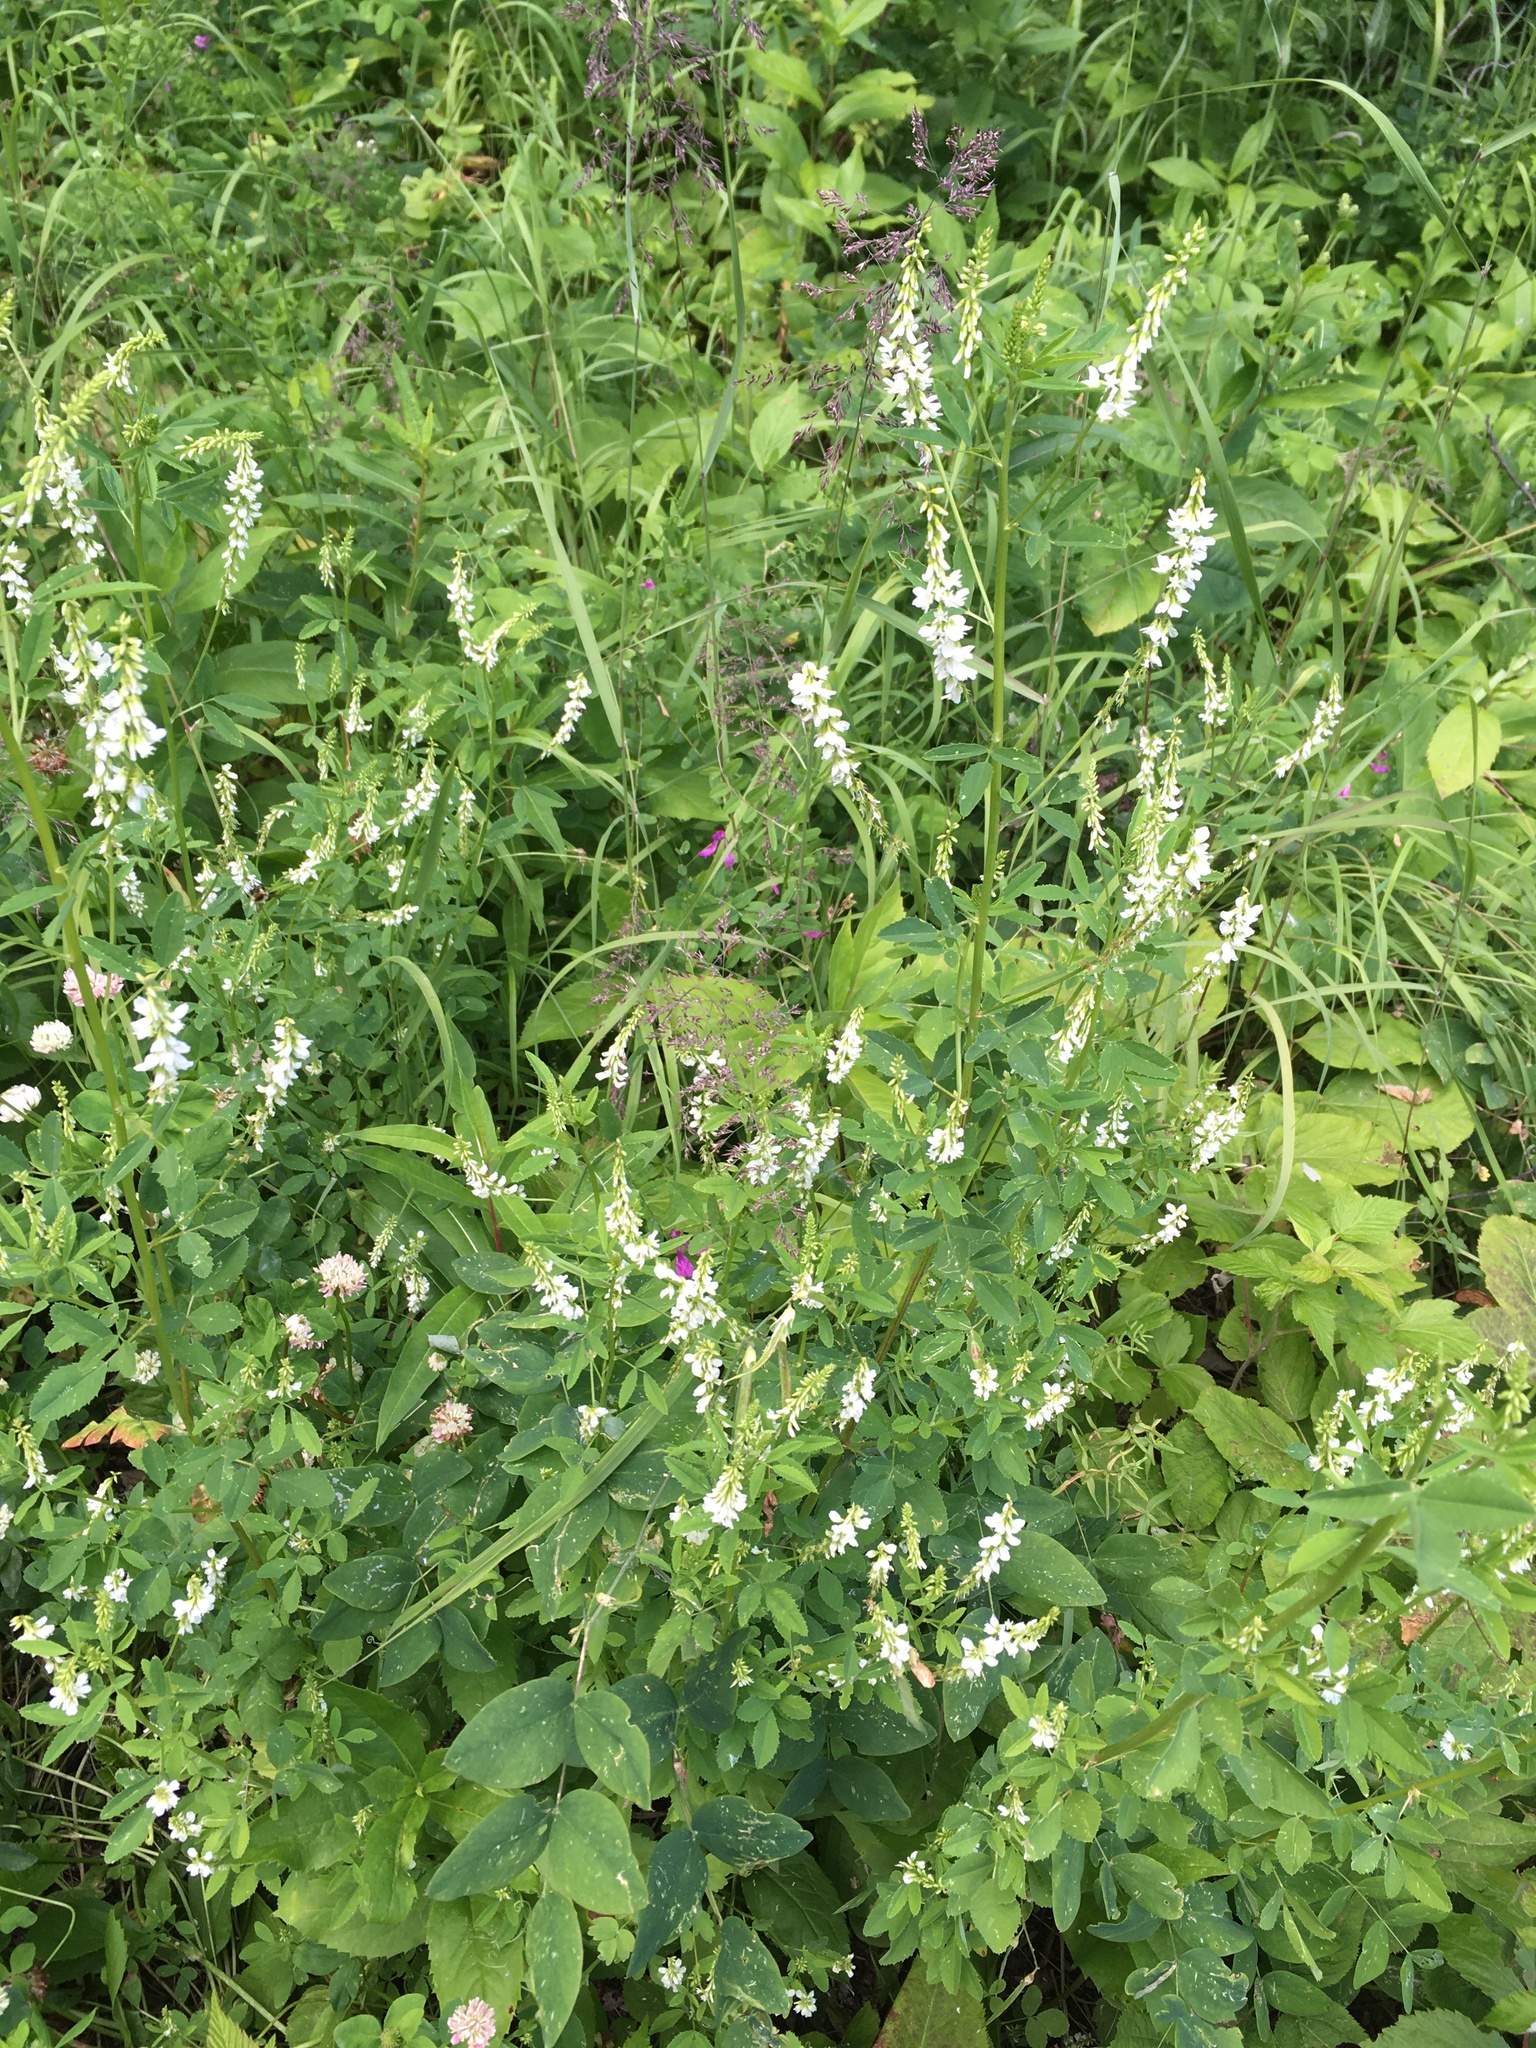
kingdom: Plantae
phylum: Tracheophyta
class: Magnoliopsida
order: Fabales
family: Fabaceae
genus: Melilotus
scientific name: Melilotus albus
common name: White melilot
